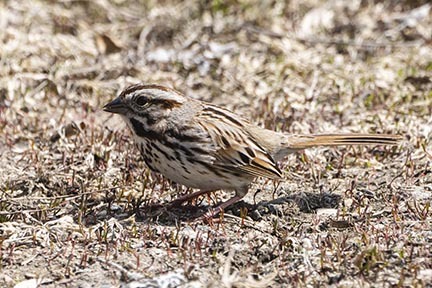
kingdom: Animalia
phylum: Chordata
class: Aves
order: Passeriformes
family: Passerellidae
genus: Melospiza
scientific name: Melospiza melodia
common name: Song sparrow
